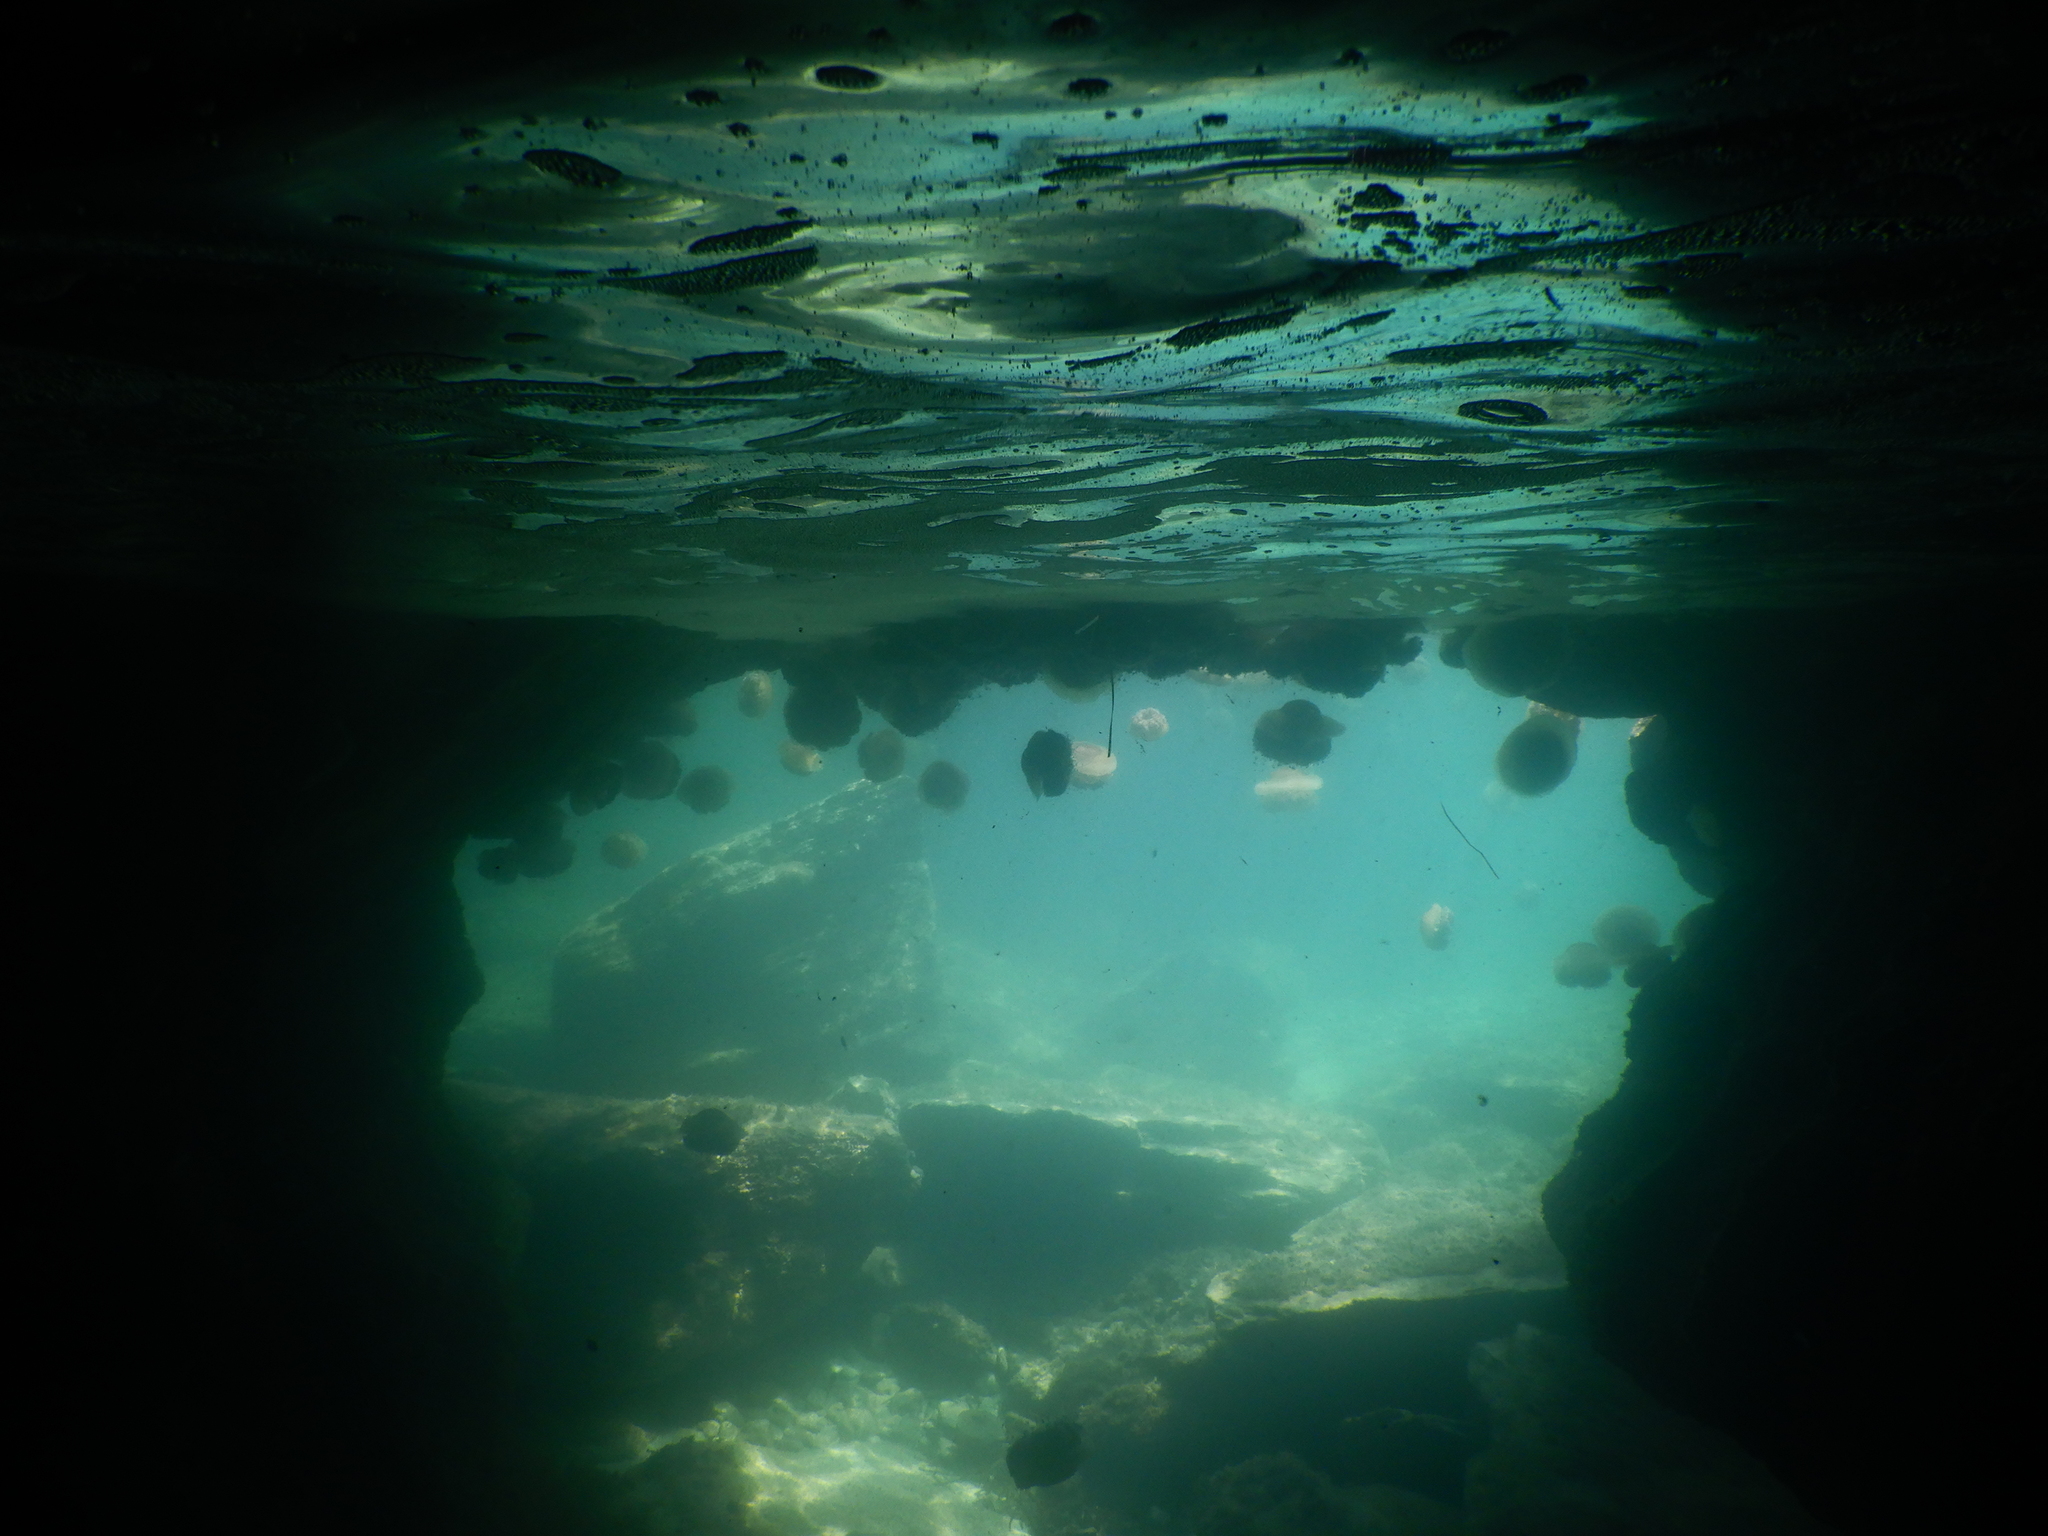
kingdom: Animalia
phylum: Cnidaria
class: Scyphozoa
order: Rhizostomeae
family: Cepheidae
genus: Cotylorhiza
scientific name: Cotylorhiza tuberculata
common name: Mediterranean jelly
